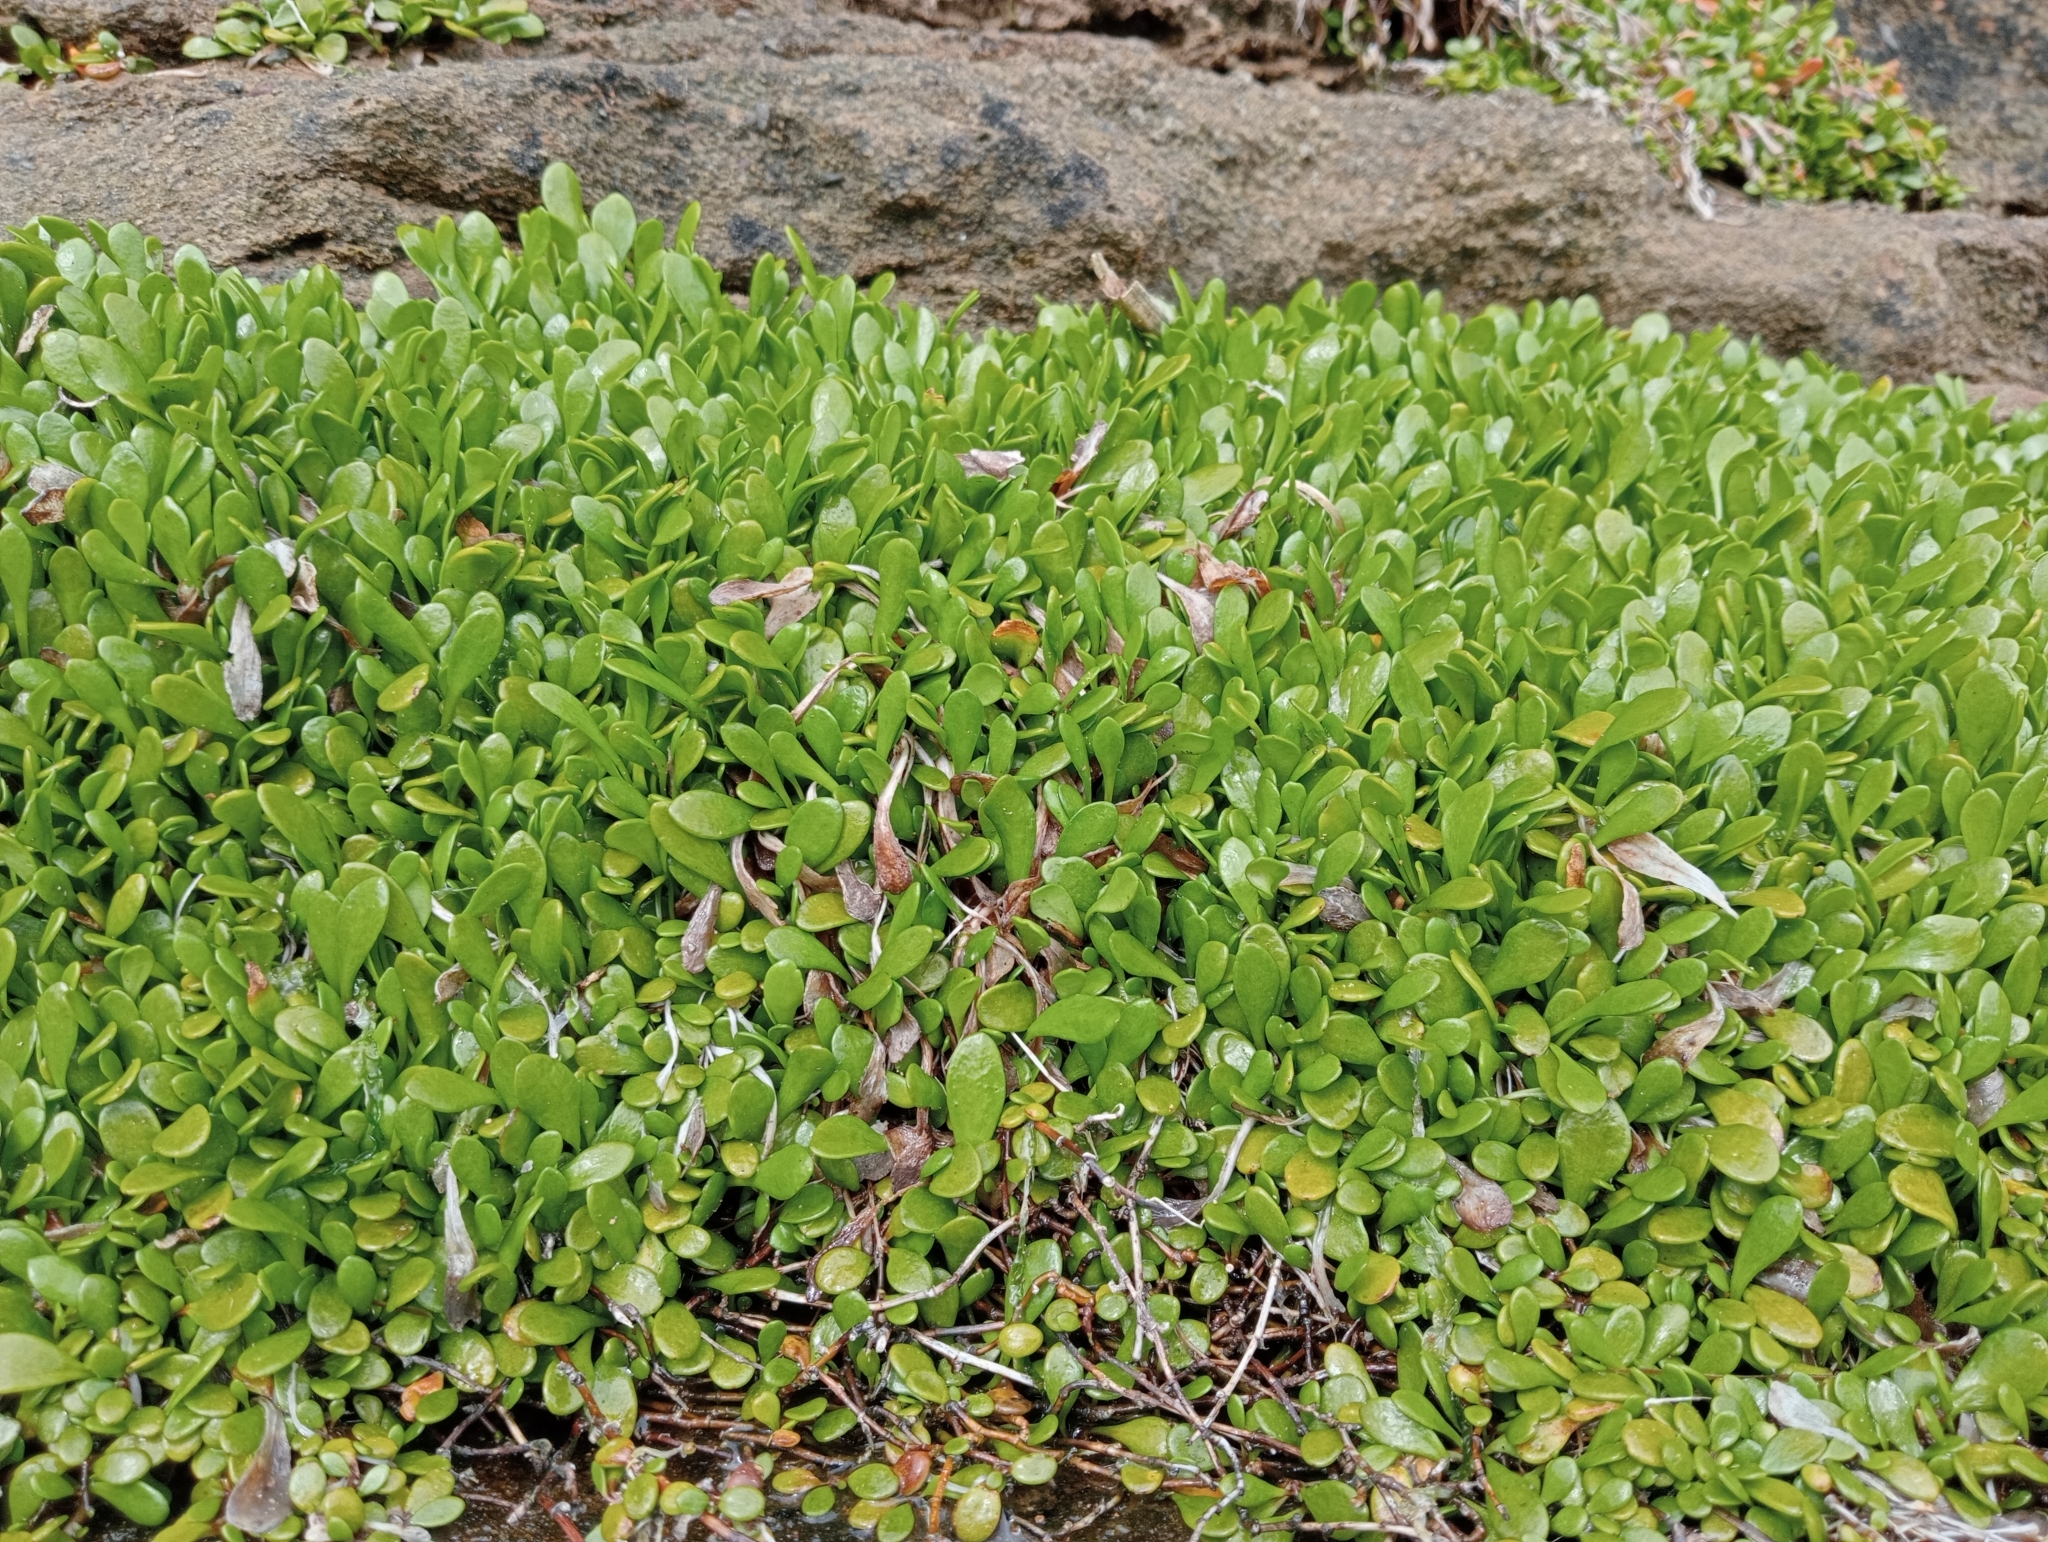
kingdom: Plantae
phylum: Tracheophyta
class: Magnoliopsida
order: Asterales
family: Goodeniaceae
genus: Goodenia
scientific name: Goodenia radicans
